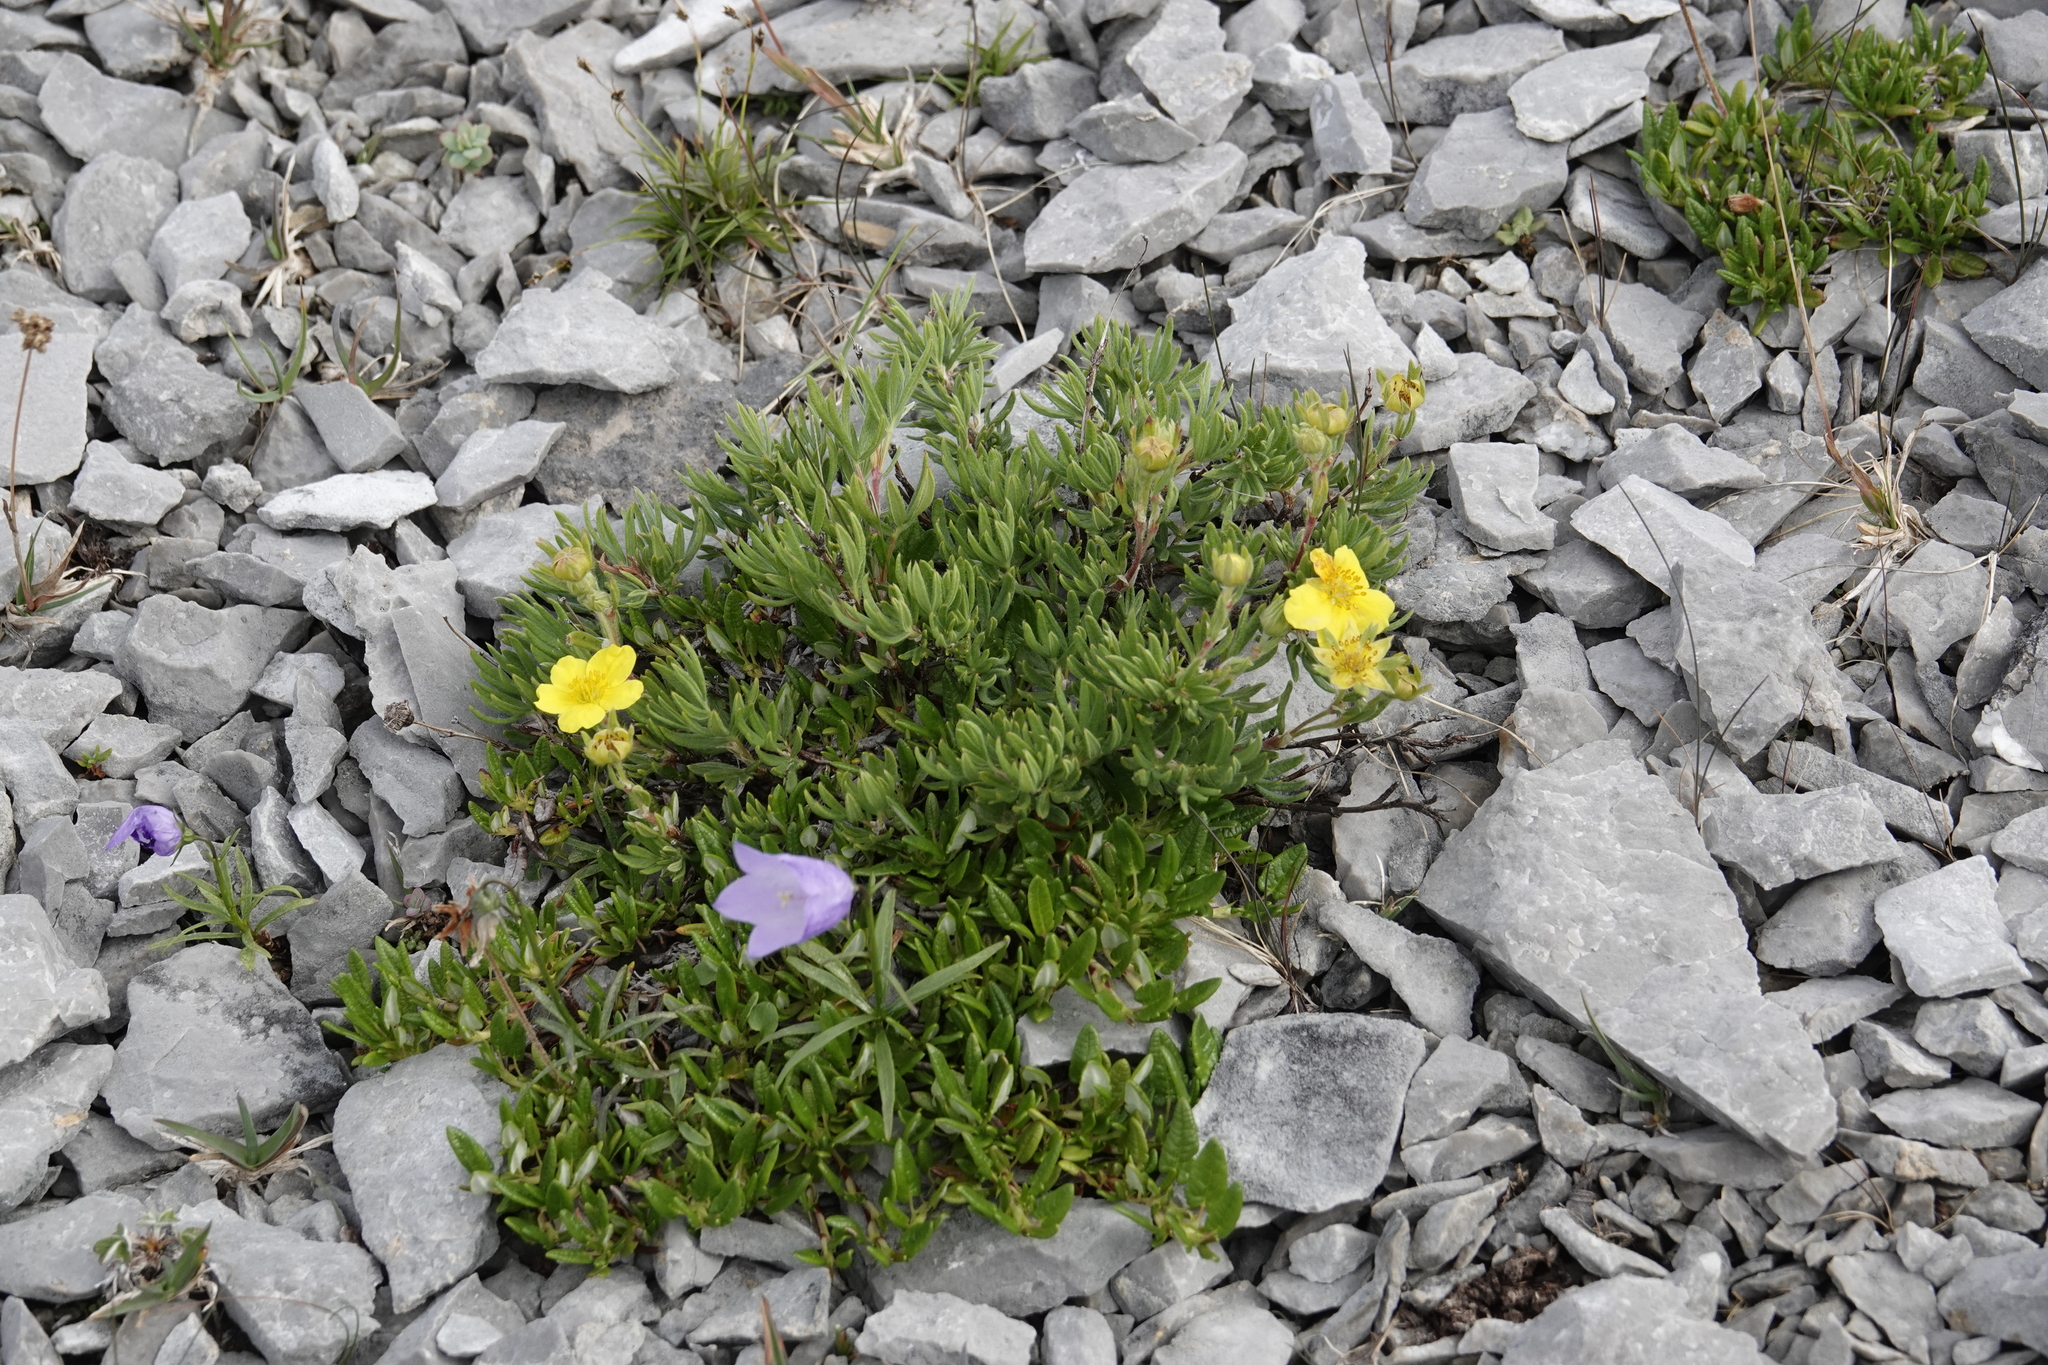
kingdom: Plantae
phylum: Tracheophyta
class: Magnoliopsida
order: Rosales
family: Rosaceae
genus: Dasiphora
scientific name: Dasiphora fruticosa
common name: Shrubby cinquefoil
